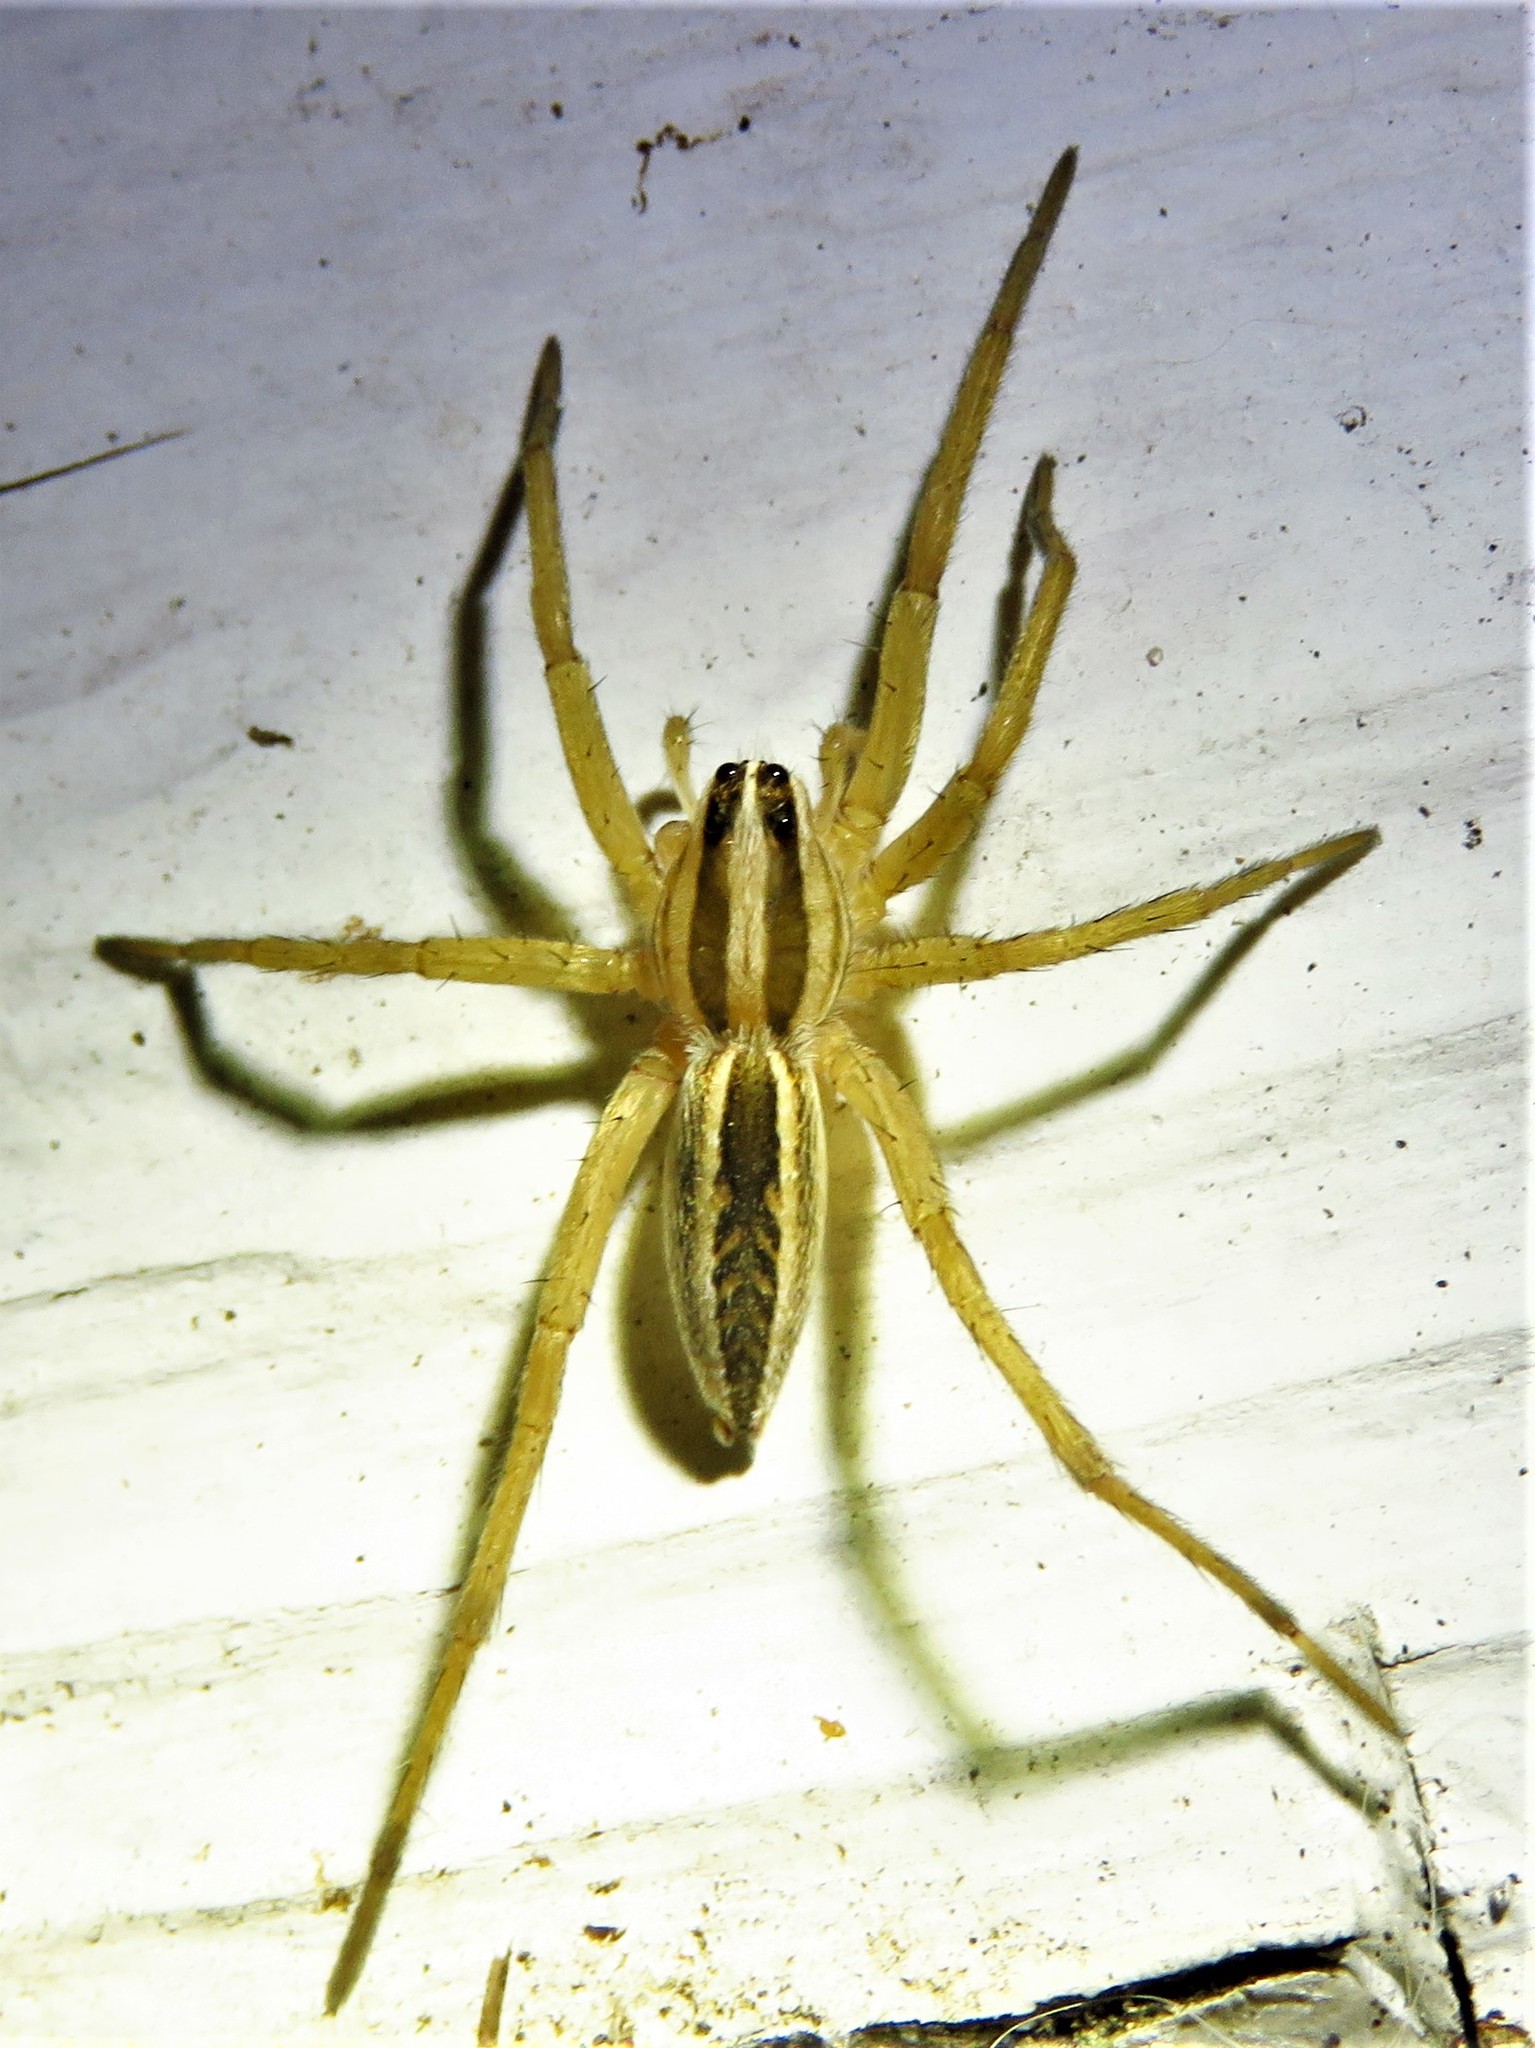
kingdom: Animalia
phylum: Arthropoda
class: Arachnida
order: Araneae
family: Lycosidae
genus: Rabidosa
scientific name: Rabidosa rabida
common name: Rabid wolf spider
